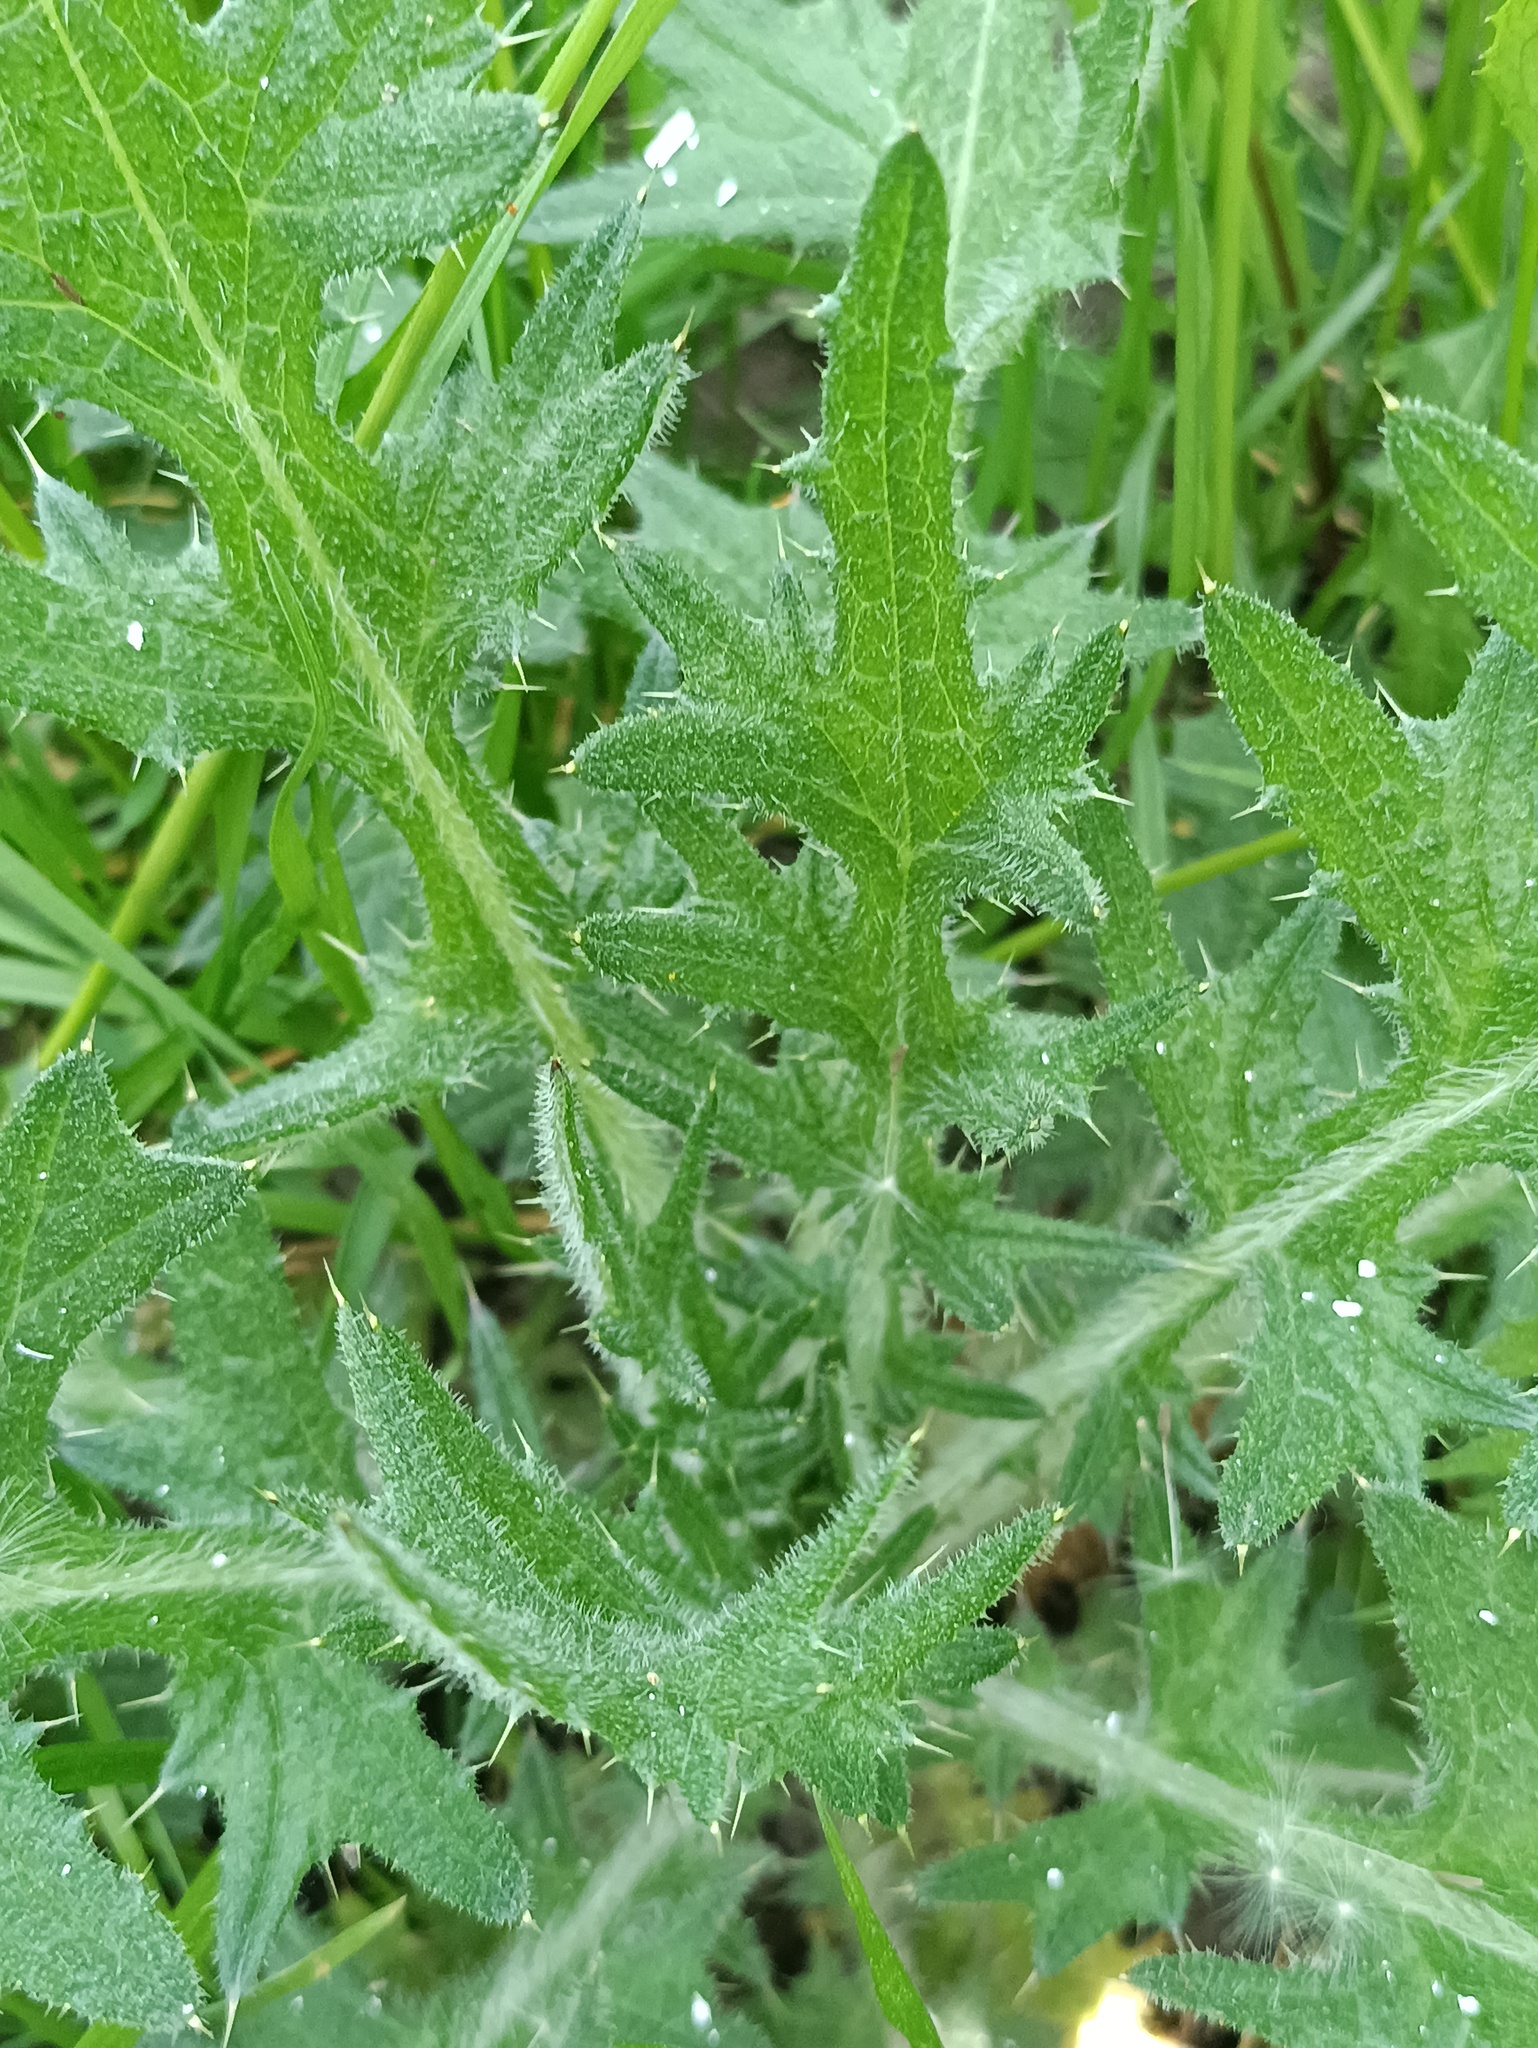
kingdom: Plantae
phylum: Tracheophyta
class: Magnoliopsida
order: Asterales
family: Asteraceae
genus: Cirsium
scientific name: Cirsium vulgare
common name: Bull thistle
